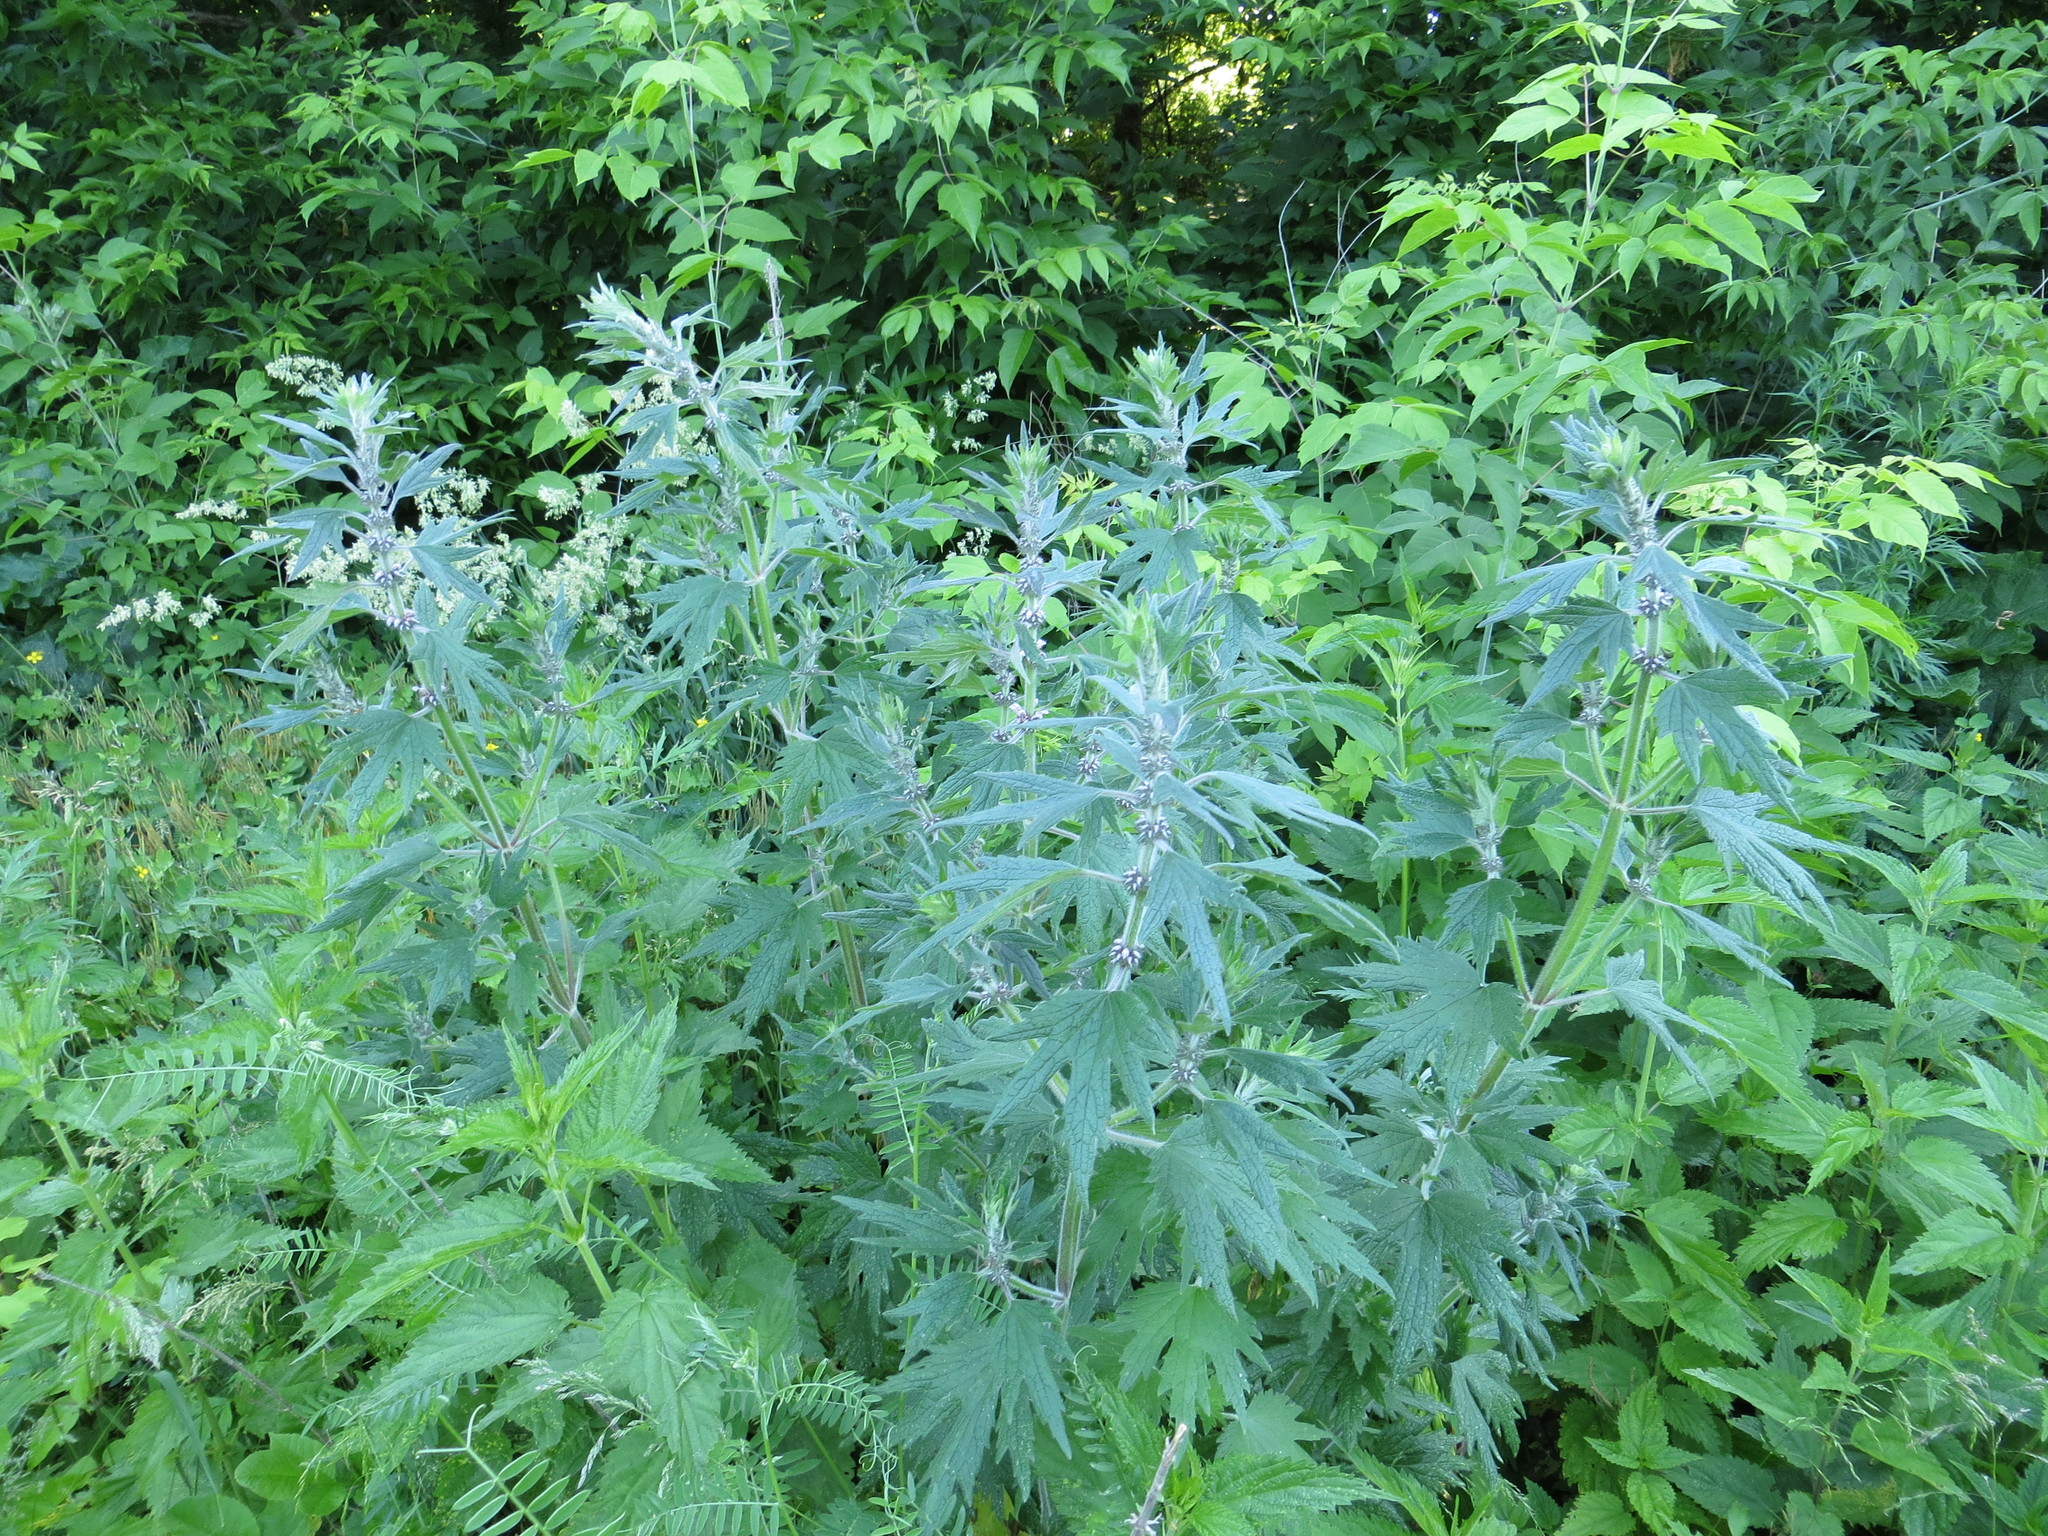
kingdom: Plantae
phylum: Tracheophyta
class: Magnoliopsida
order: Lamiales
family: Lamiaceae
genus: Leonurus
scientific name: Leonurus quinquelobatus
